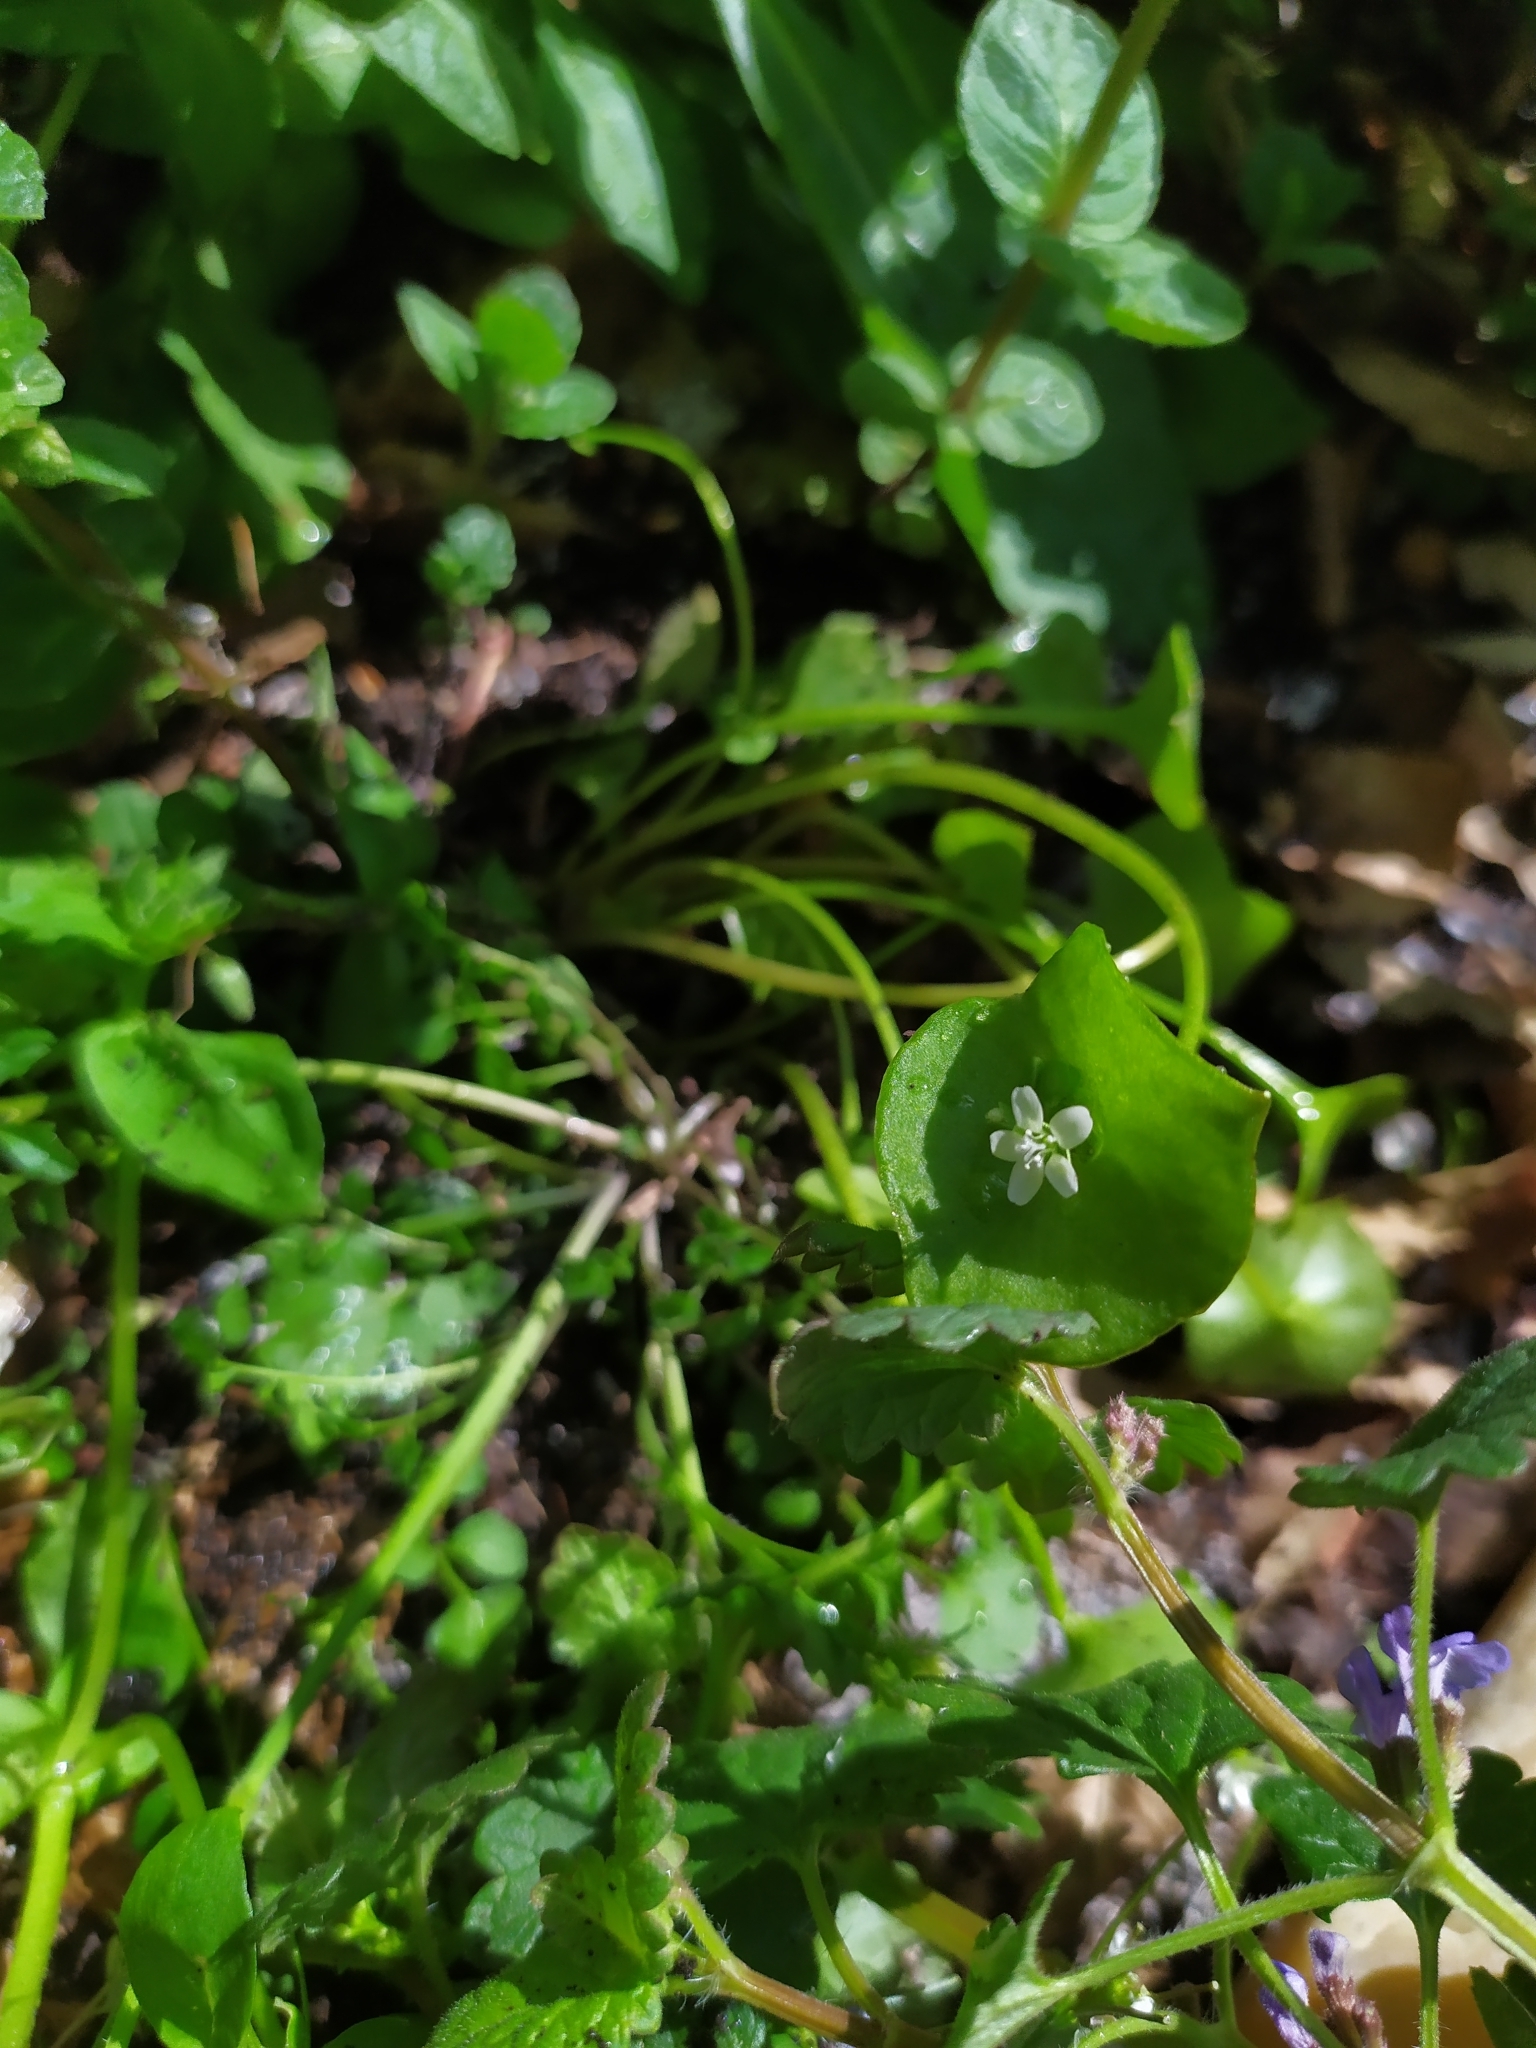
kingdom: Plantae
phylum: Tracheophyta
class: Magnoliopsida
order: Caryophyllales
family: Montiaceae
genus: Claytonia
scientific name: Claytonia perfoliata
